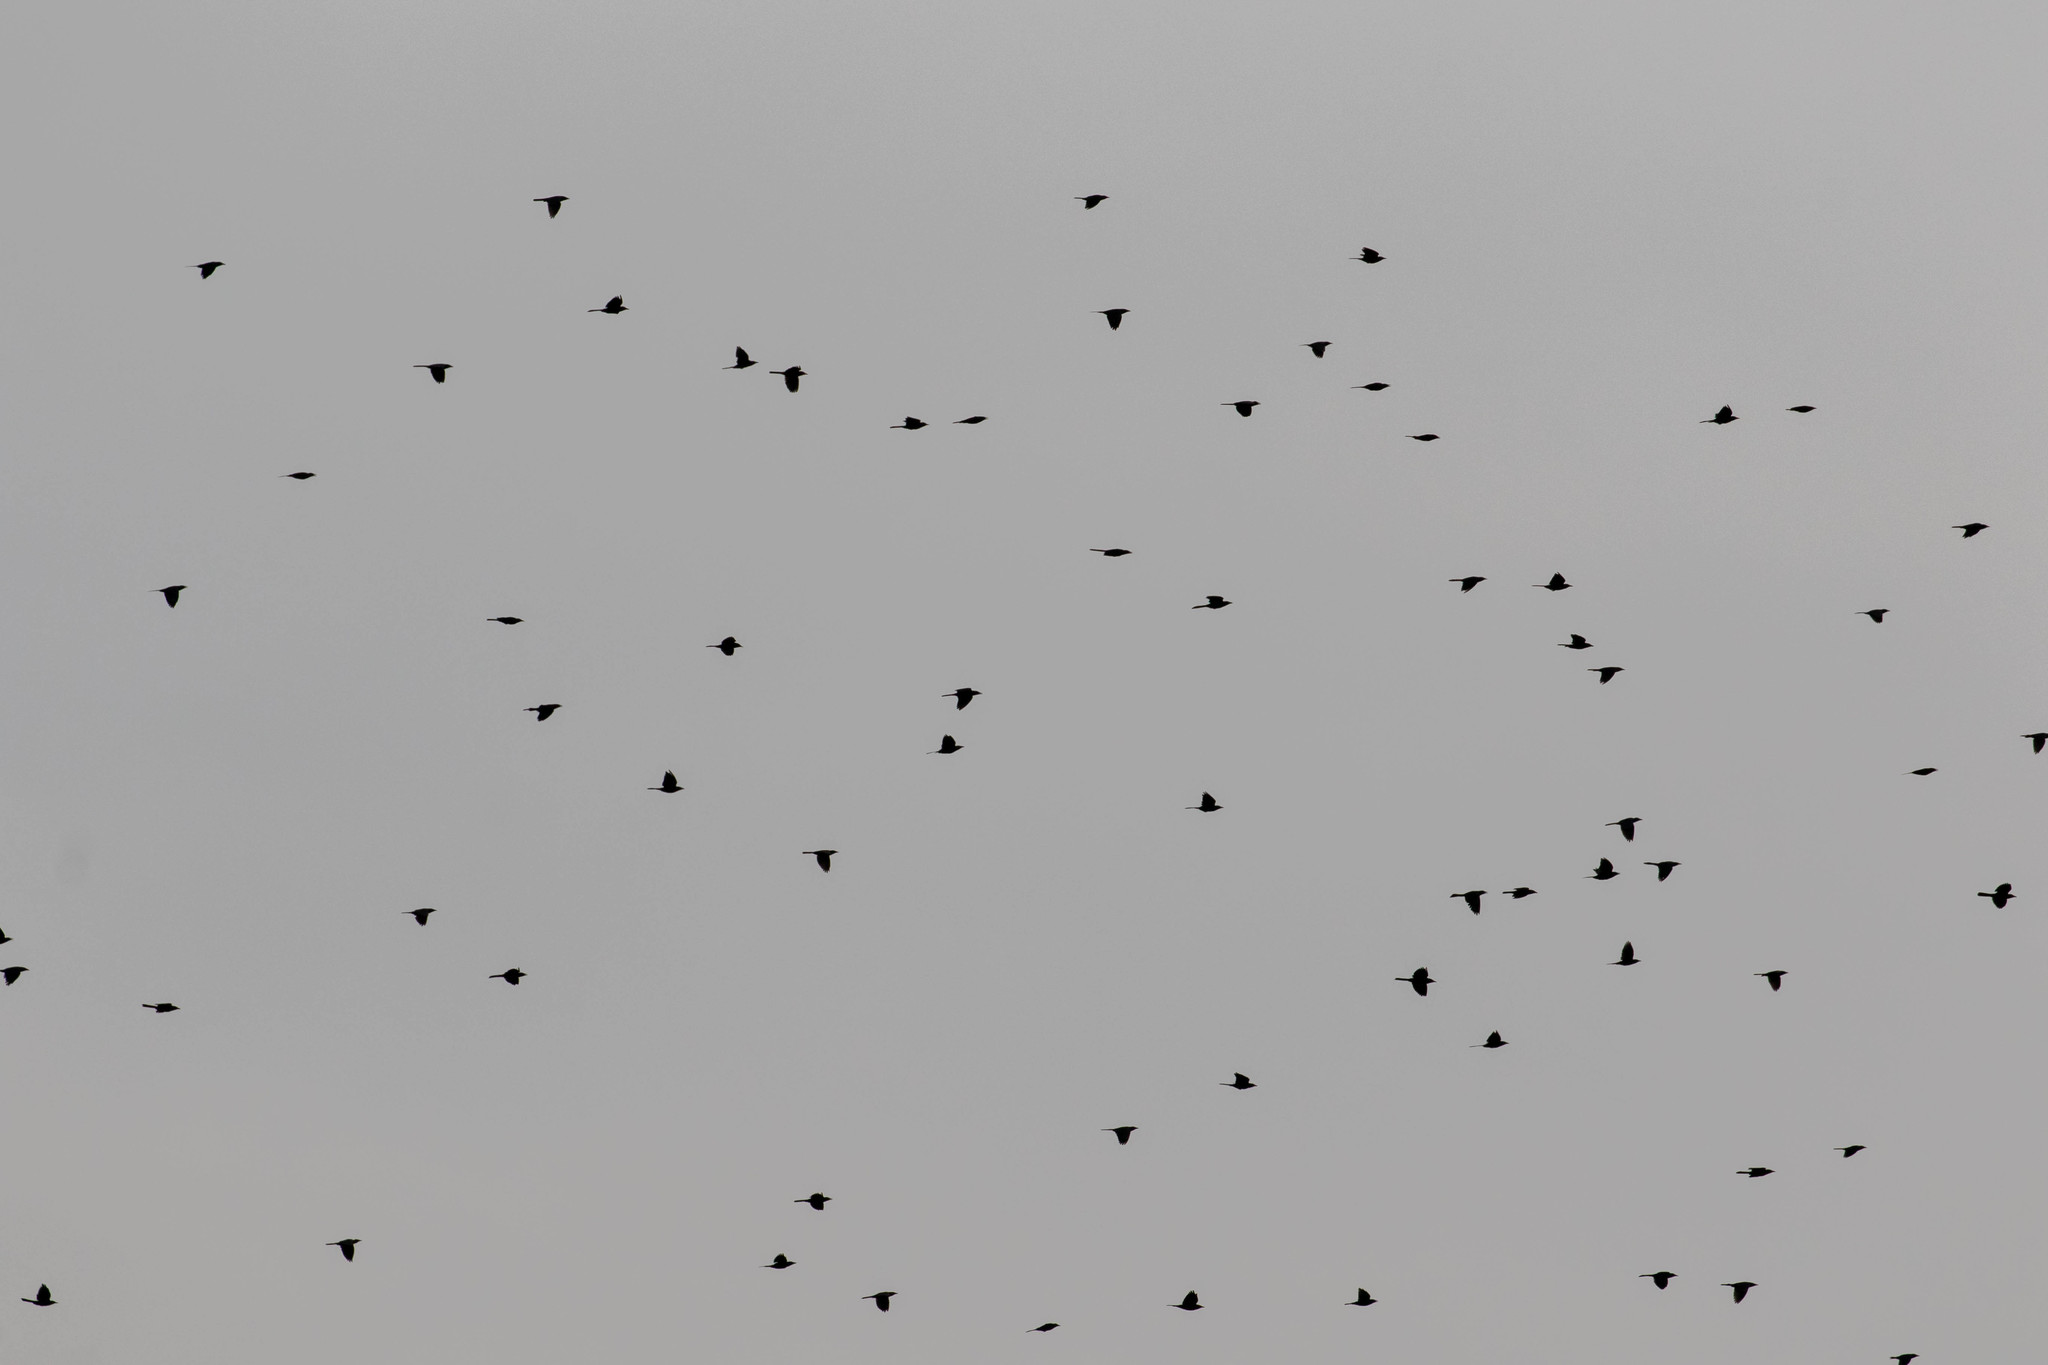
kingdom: Animalia
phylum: Chordata
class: Aves
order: Passeriformes
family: Icteridae
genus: Quiscalus
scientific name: Quiscalus quiscula
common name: Common grackle
